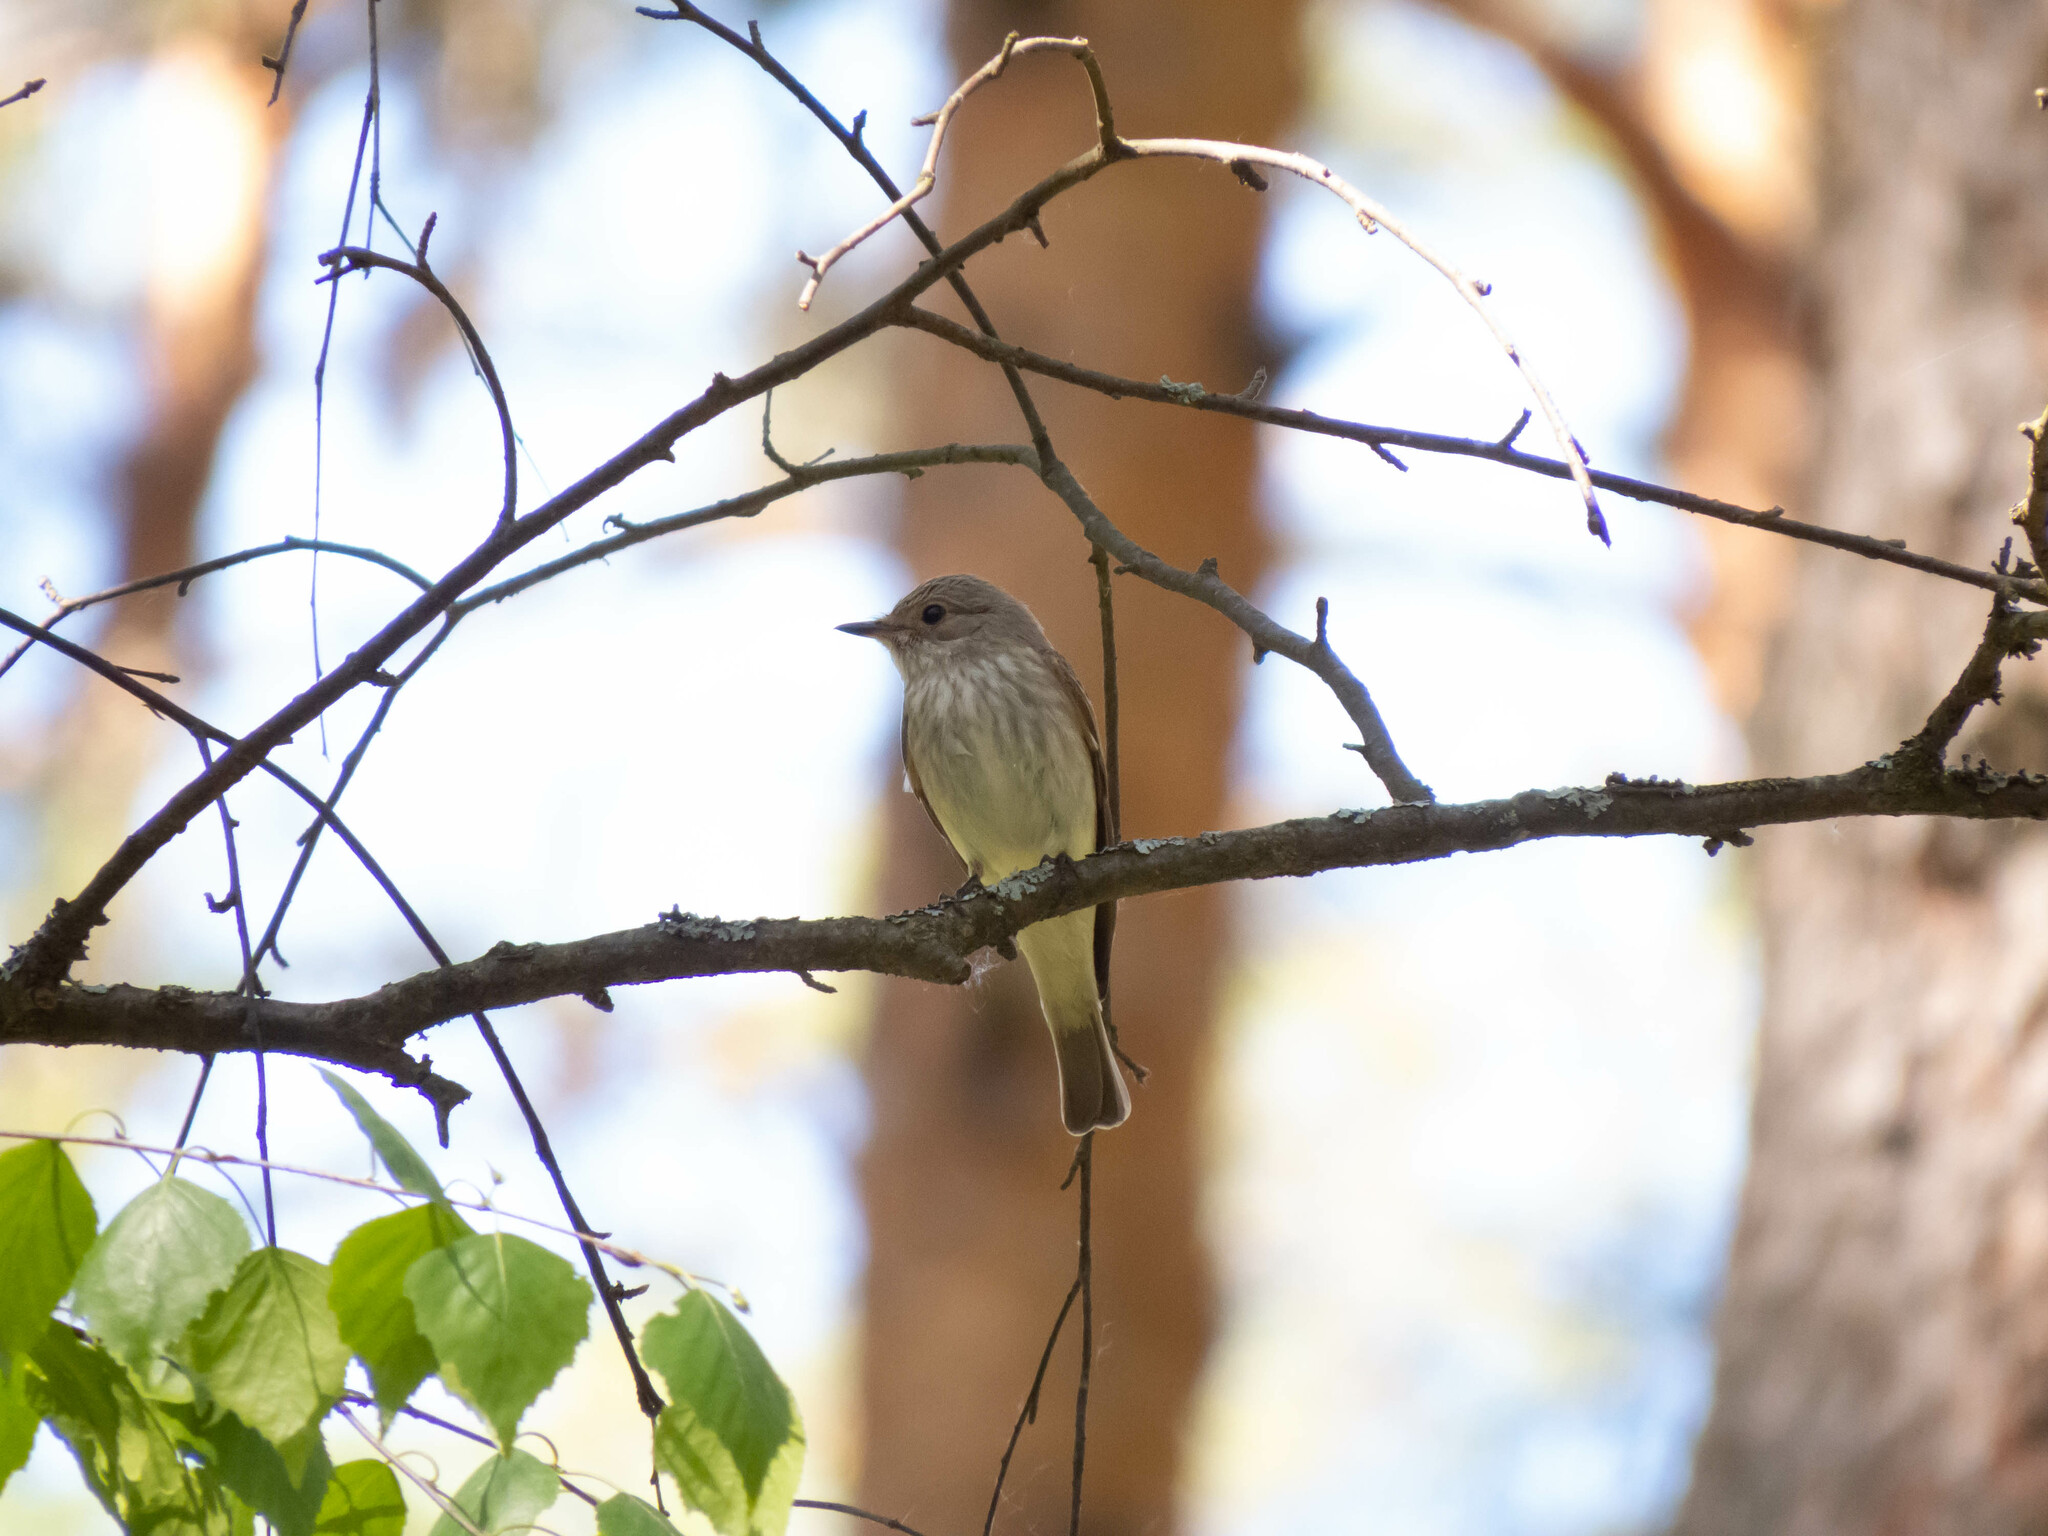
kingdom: Animalia
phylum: Chordata
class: Aves
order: Passeriformes
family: Muscicapidae
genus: Muscicapa
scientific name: Muscicapa striata
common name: Spotted flycatcher
